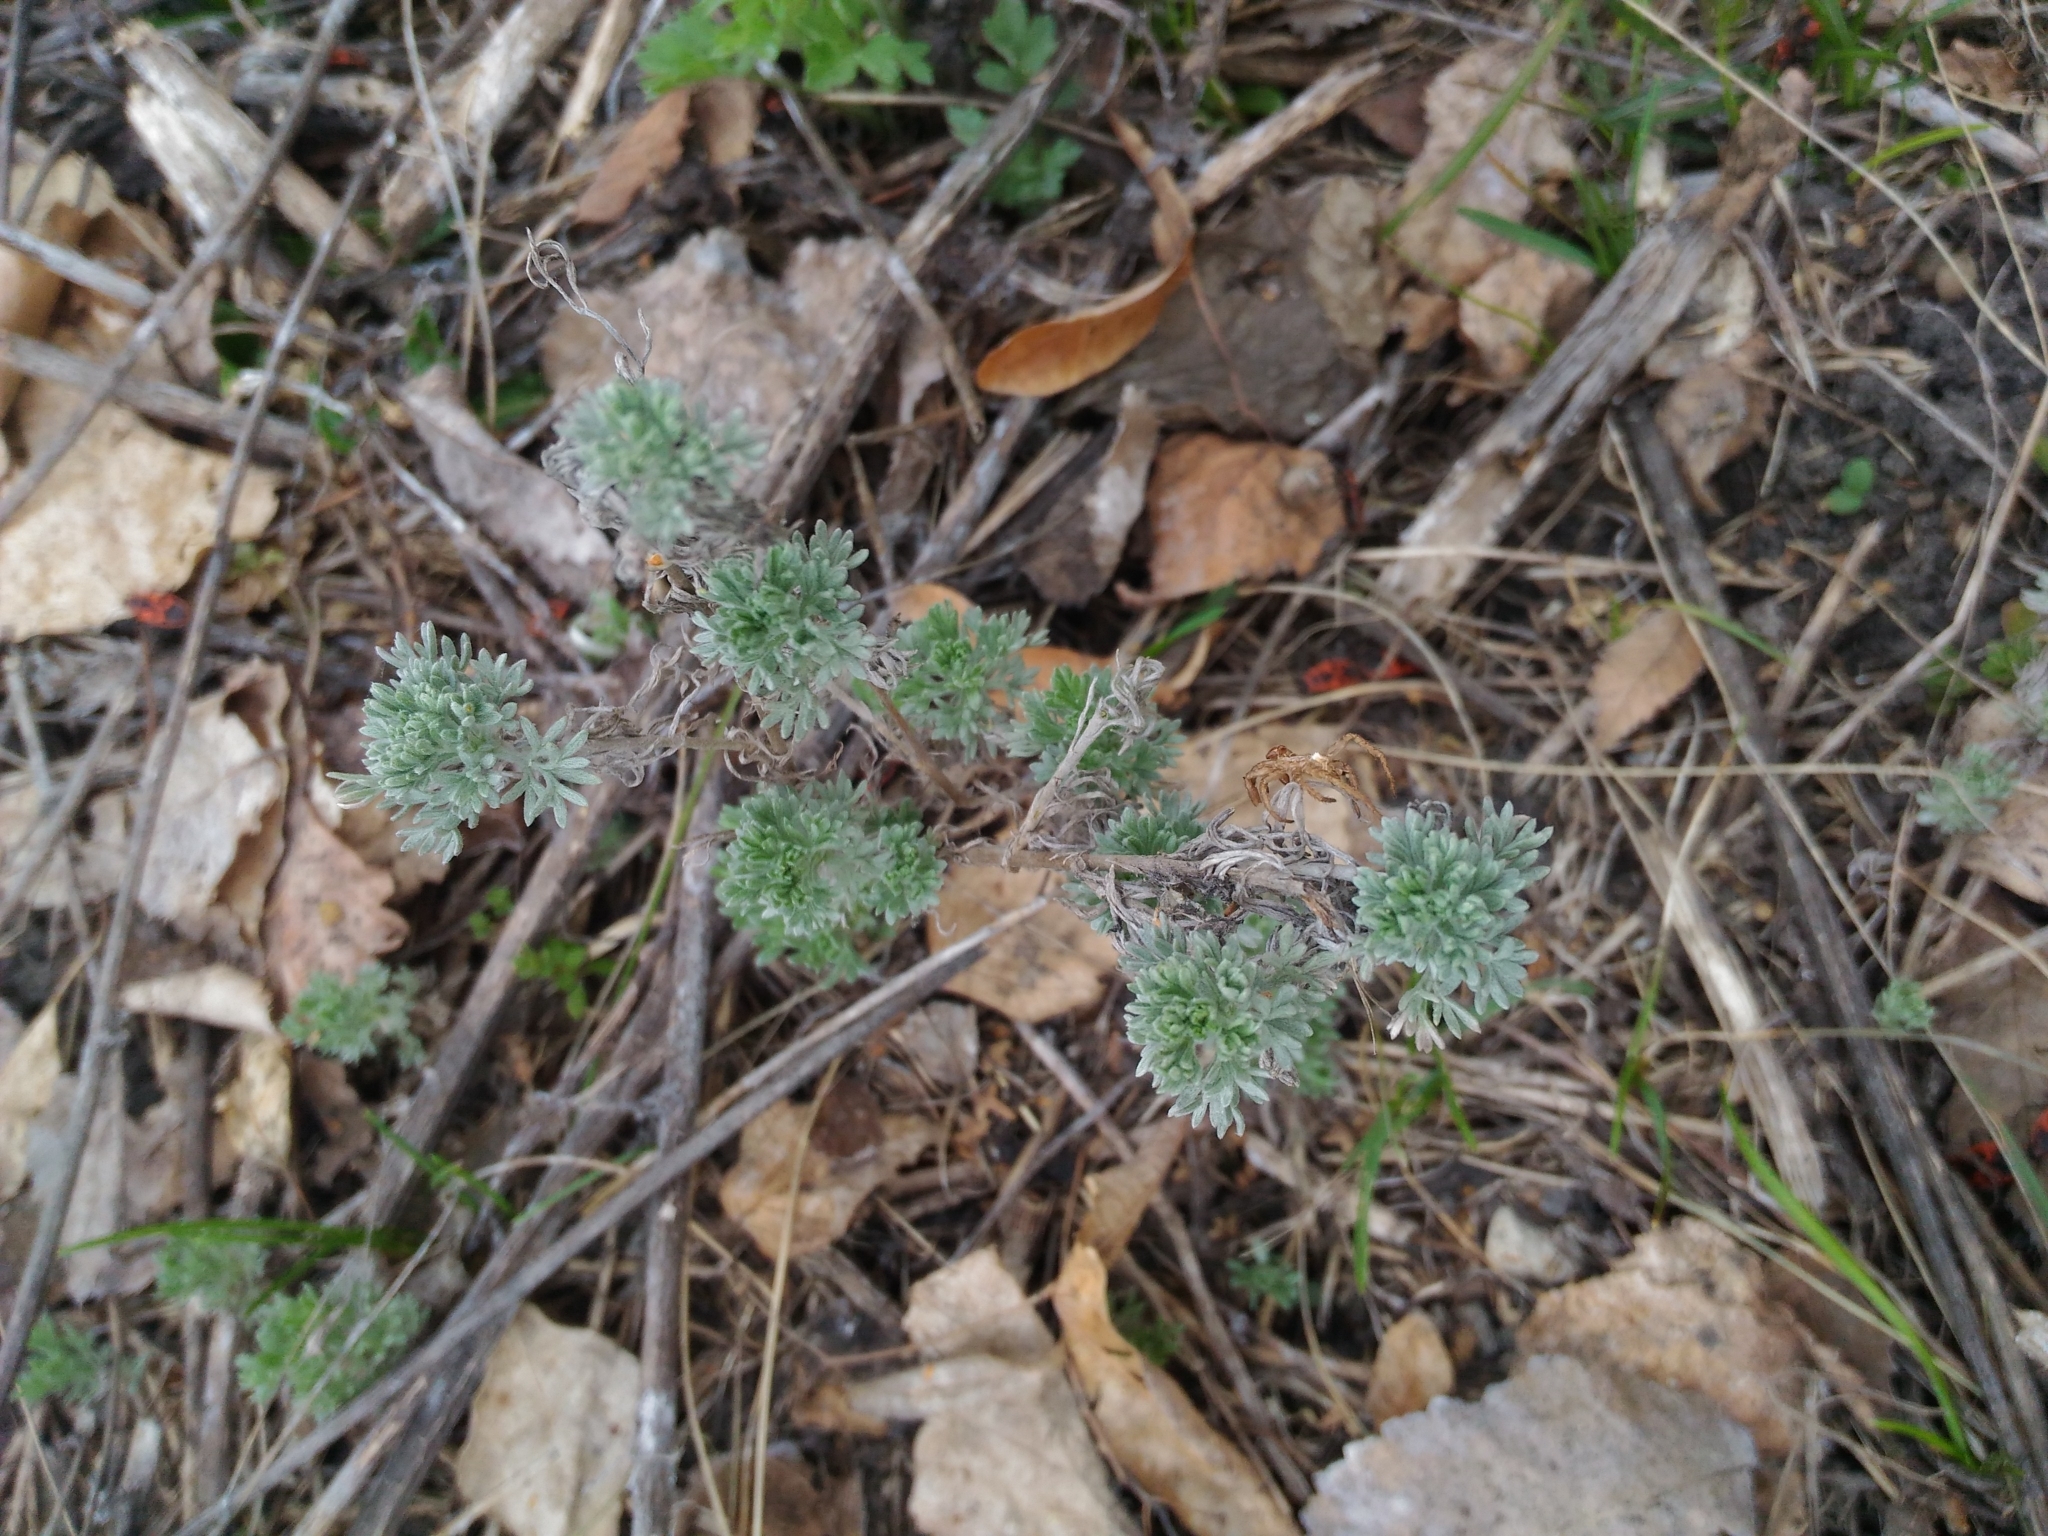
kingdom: Plantae
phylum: Tracheophyta
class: Magnoliopsida
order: Asterales
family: Asteraceae
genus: Artemisia
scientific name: Artemisia absinthium
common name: Wormwood
